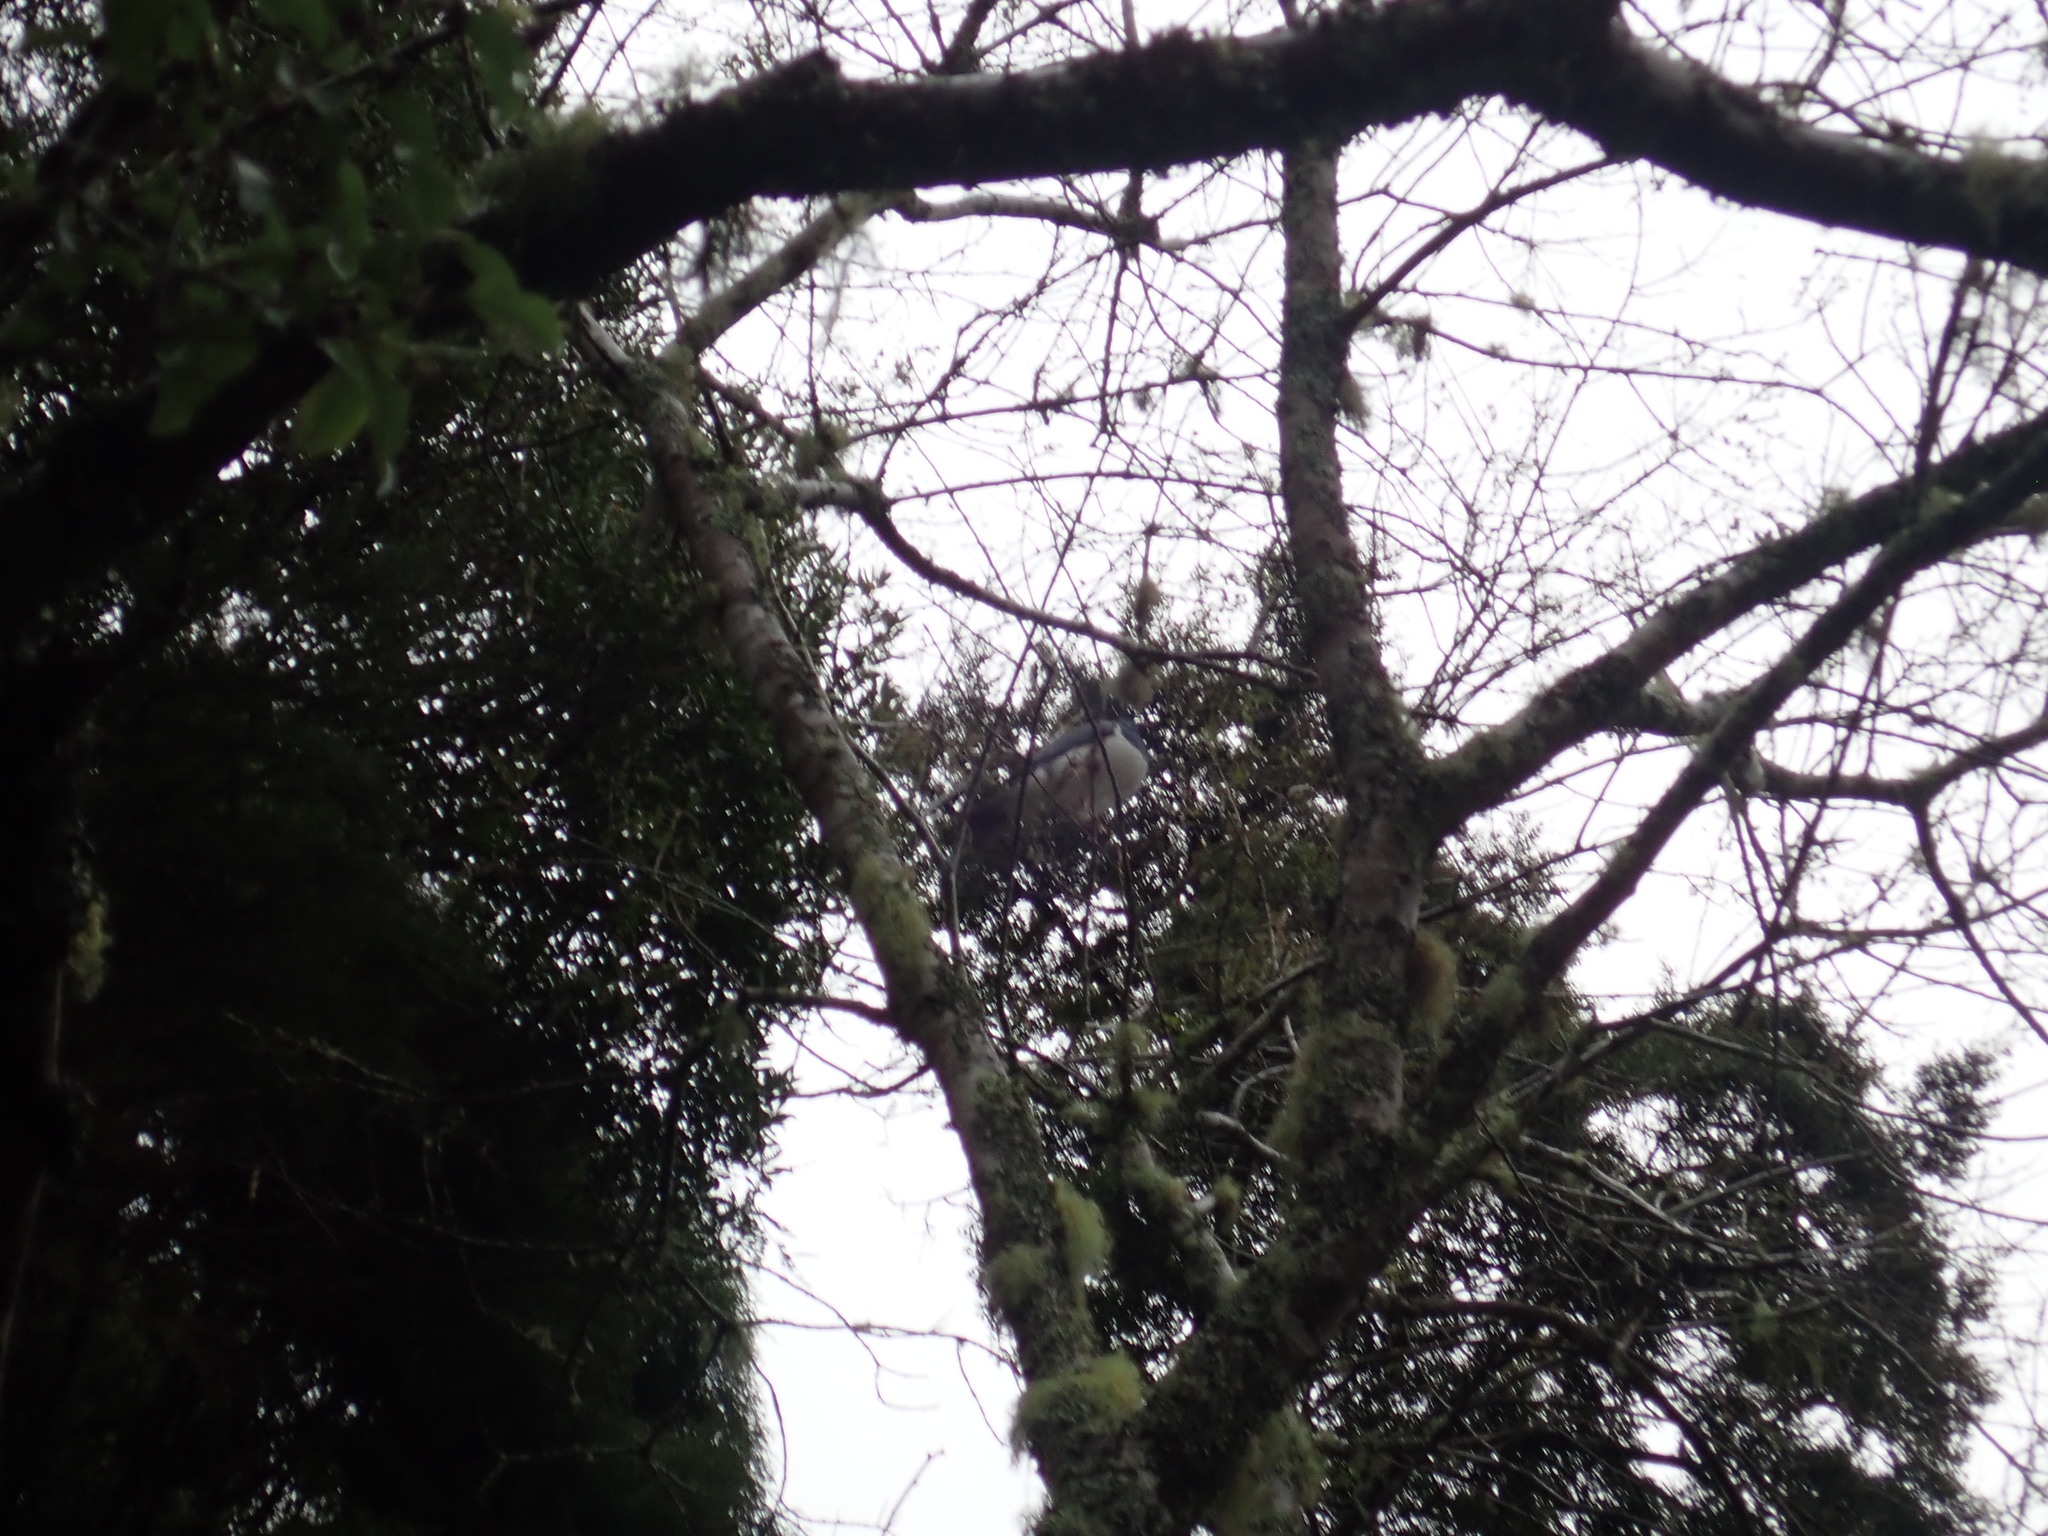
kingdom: Animalia
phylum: Chordata
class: Aves
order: Columbiformes
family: Columbidae
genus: Hemiphaga
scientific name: Hemiphaga novaeseelandiae
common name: New zealand pigeon
